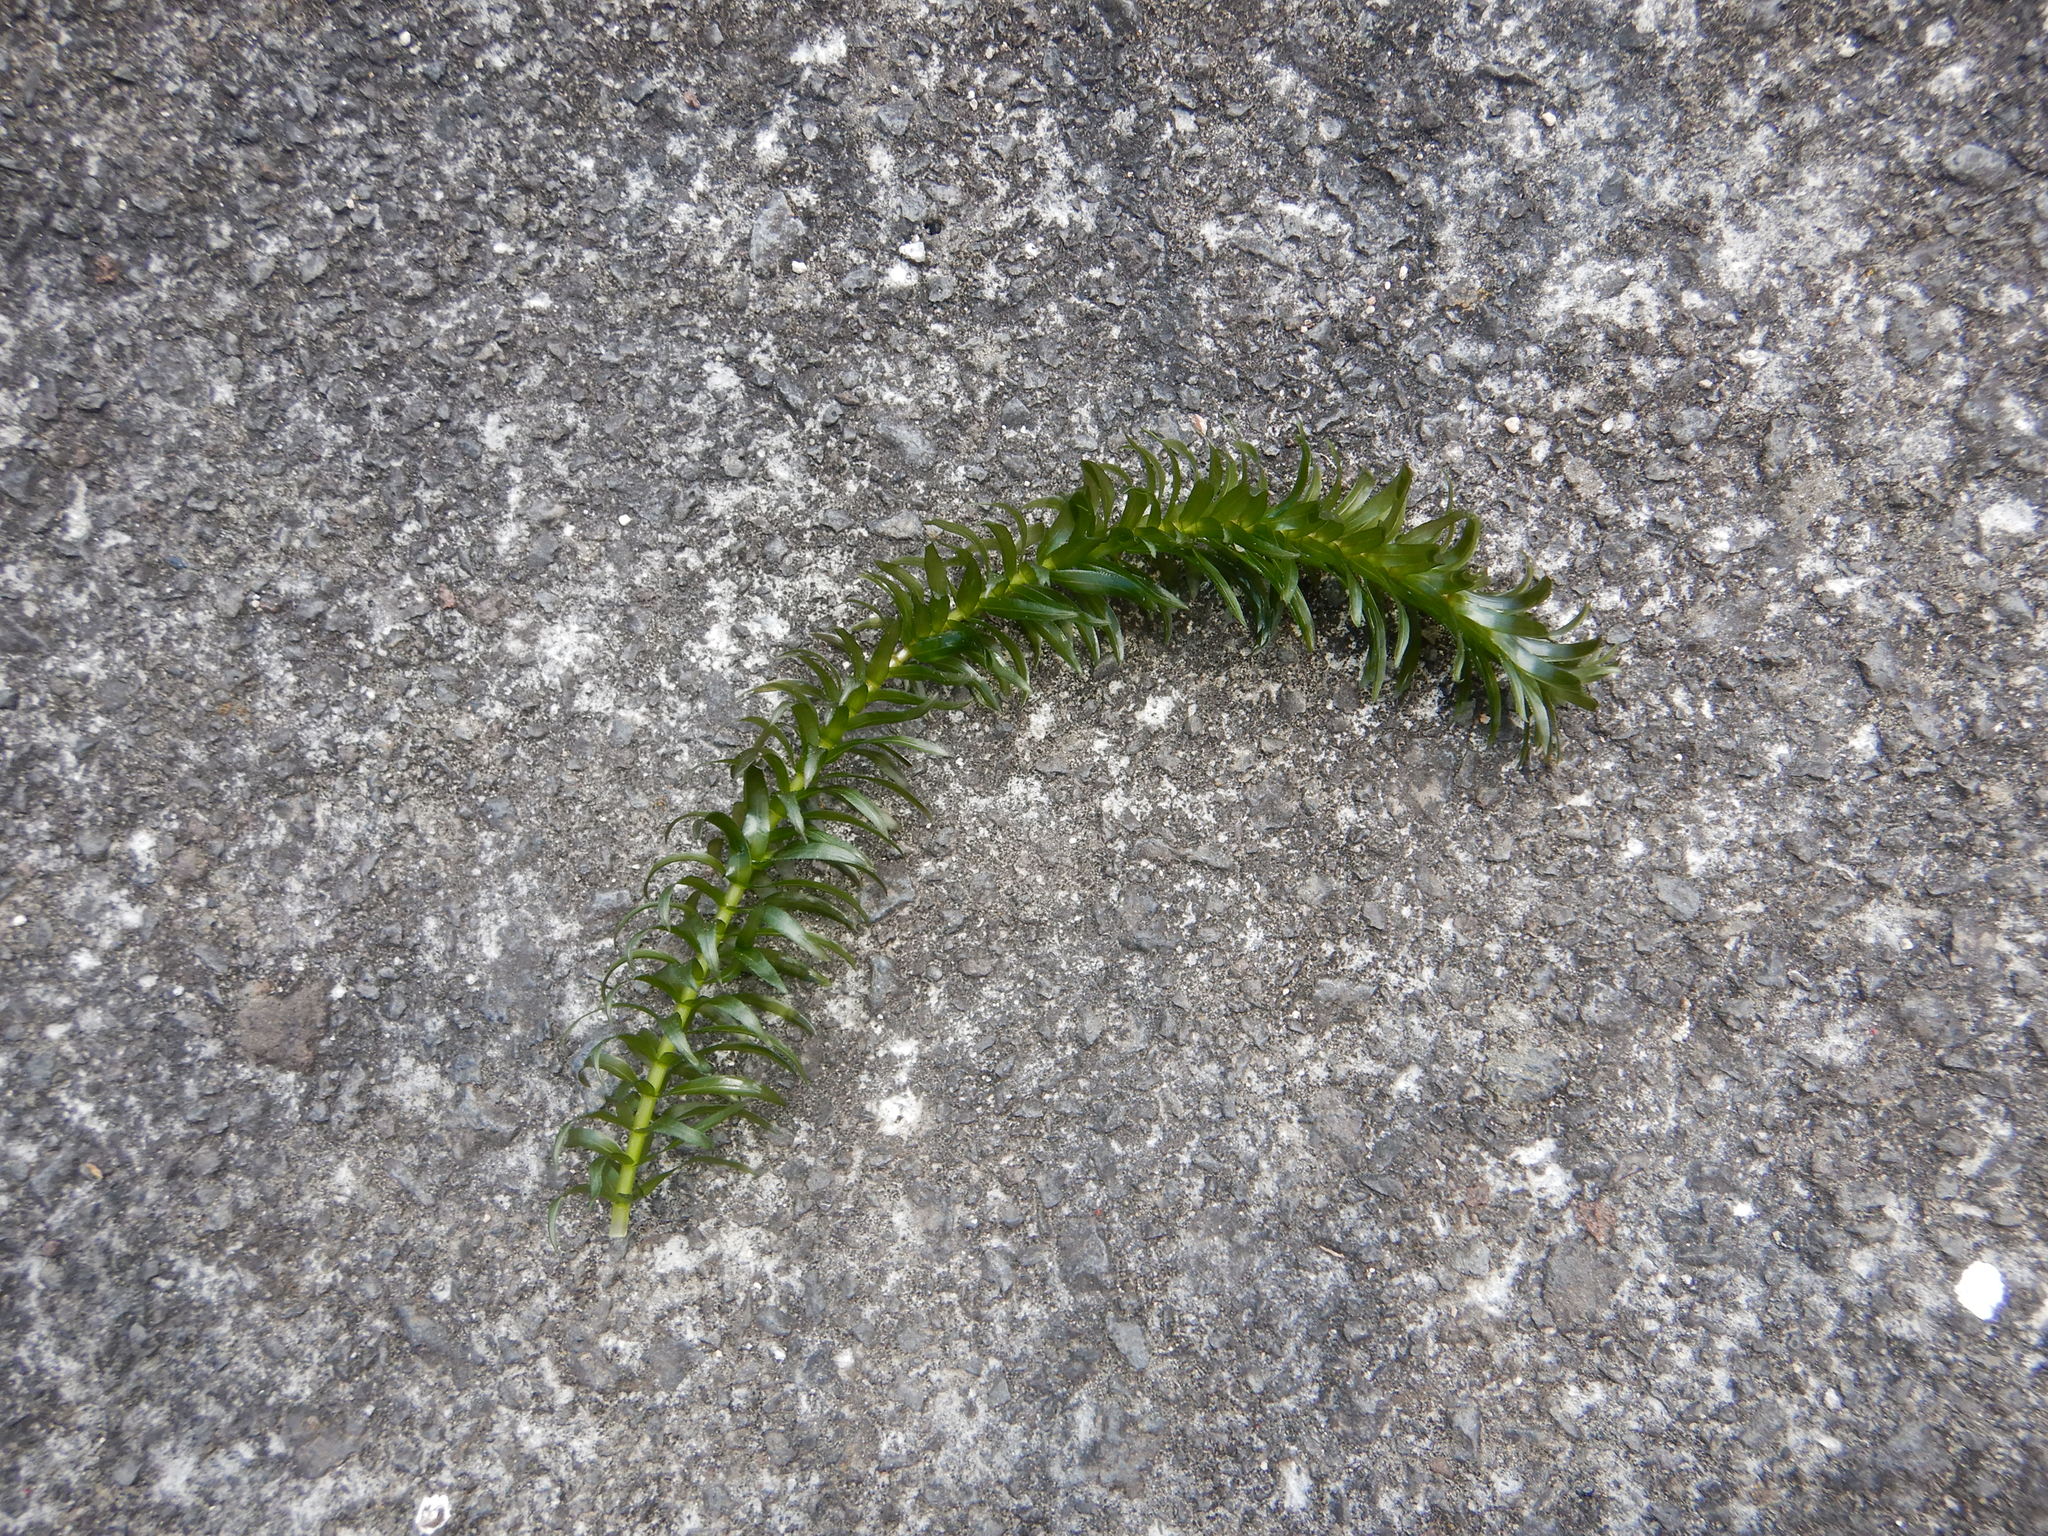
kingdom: Plantae
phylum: Tracheophyta
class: Liliopsida
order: Alismatales
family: Hydrocharitaceae
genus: Elodea
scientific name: Elodea densa
